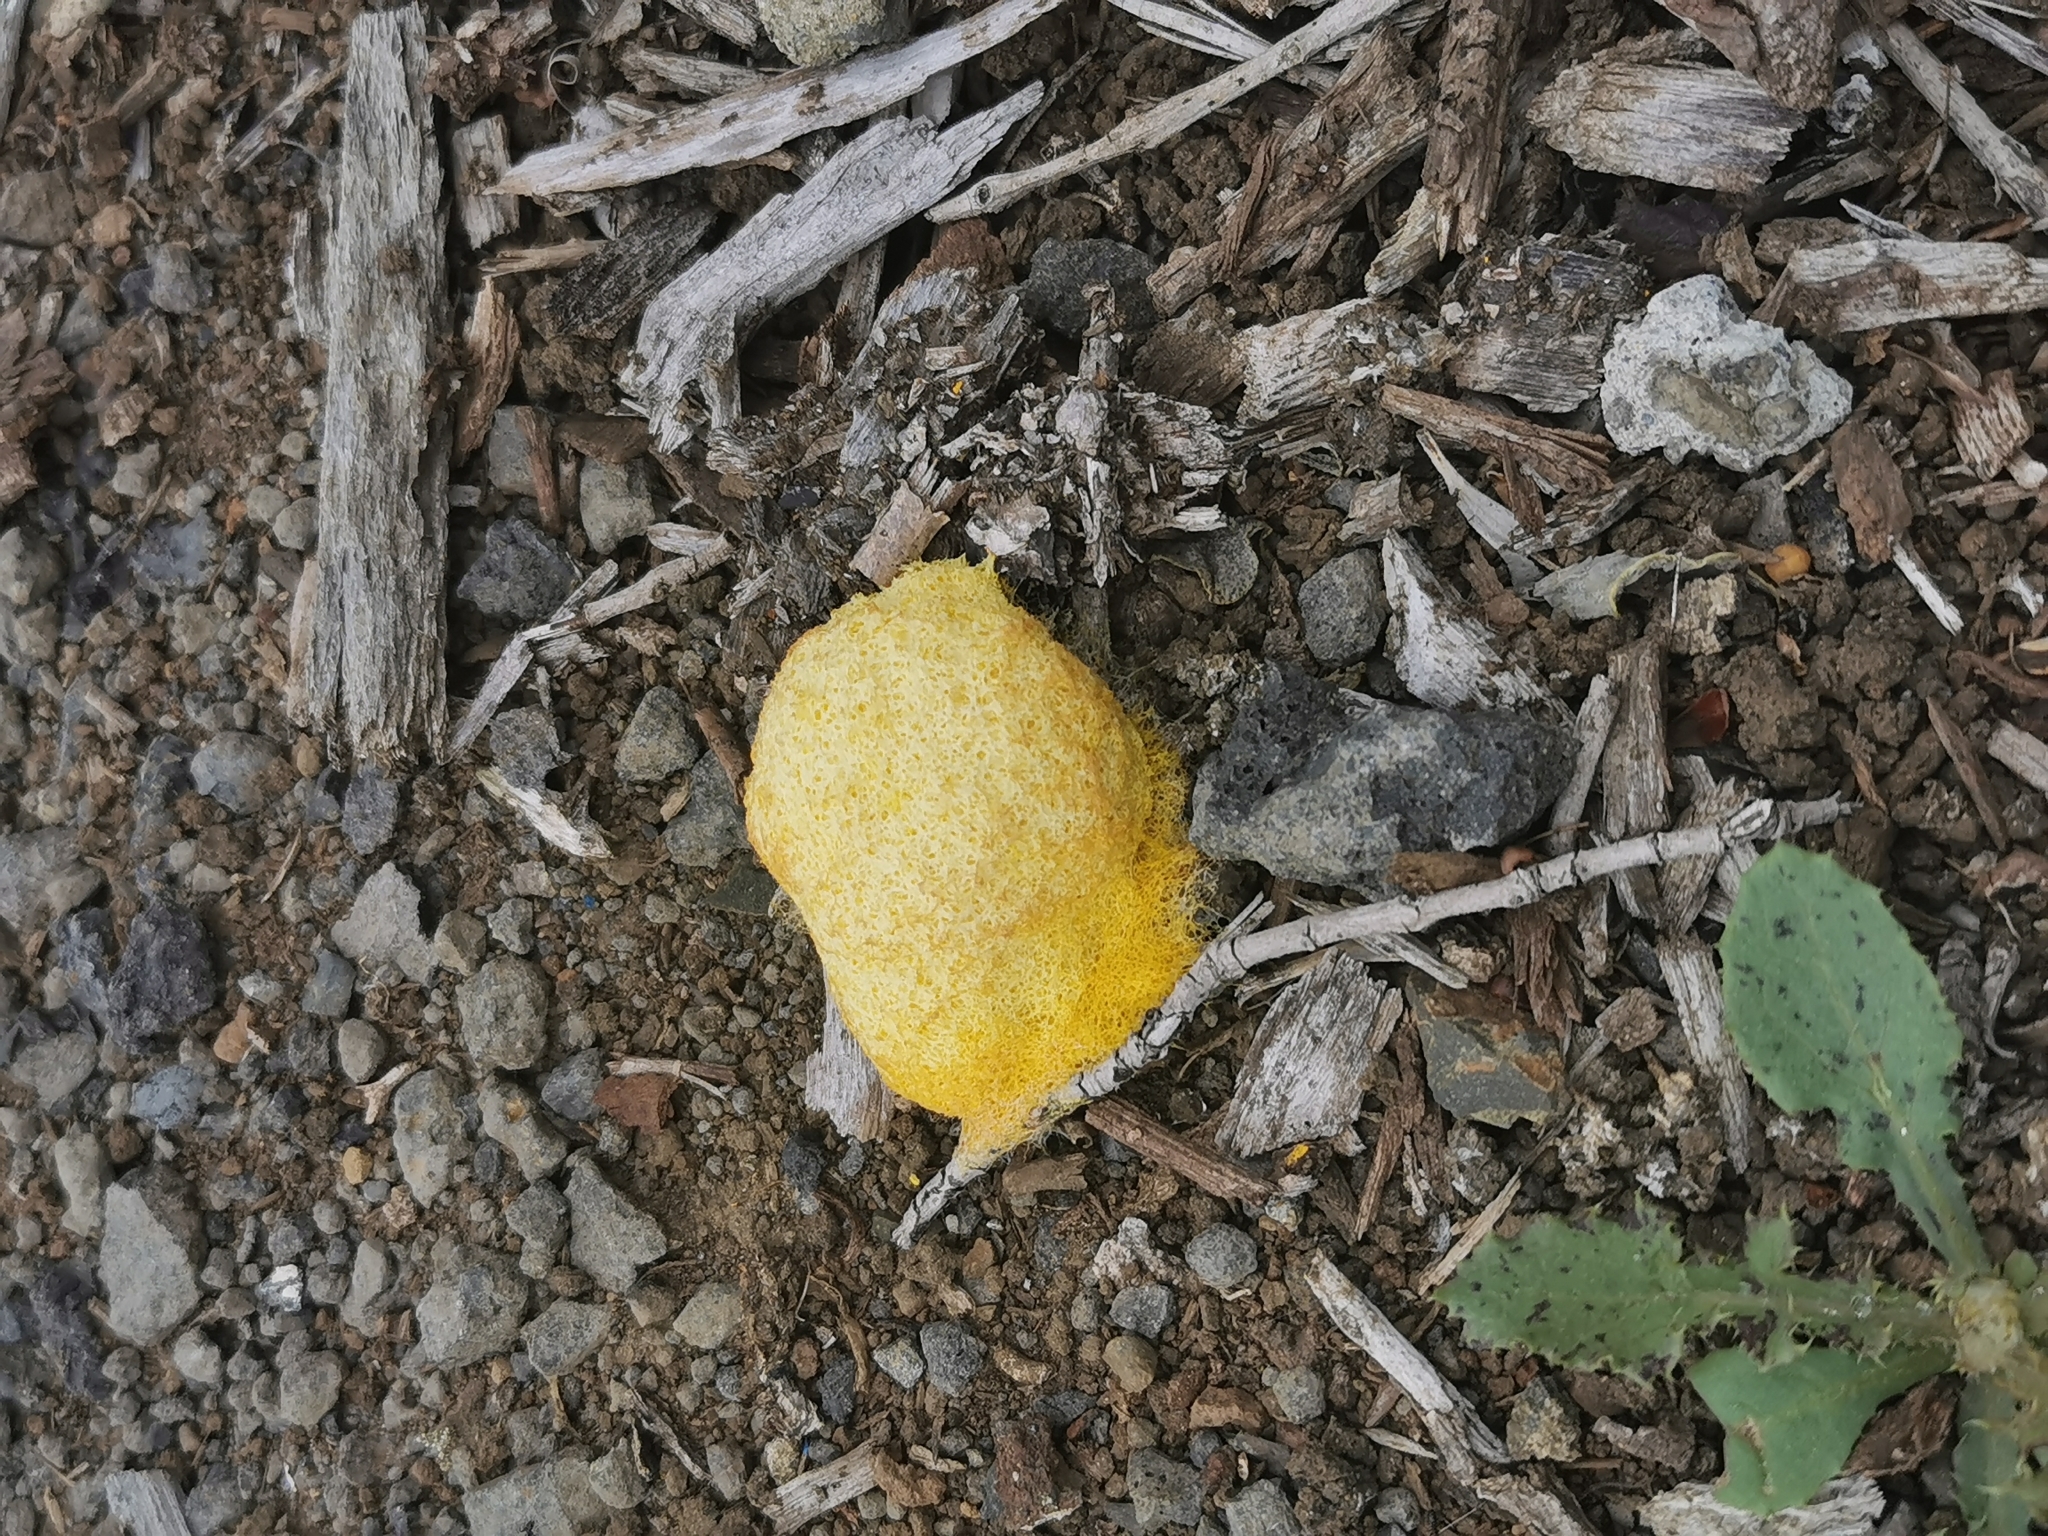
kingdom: Protozoa
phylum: Mycetozoa
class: Myxomycetes
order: Physarales
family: Physaraceae
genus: Fuligo
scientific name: Fuligo septica
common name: Dog vomit slime mold
